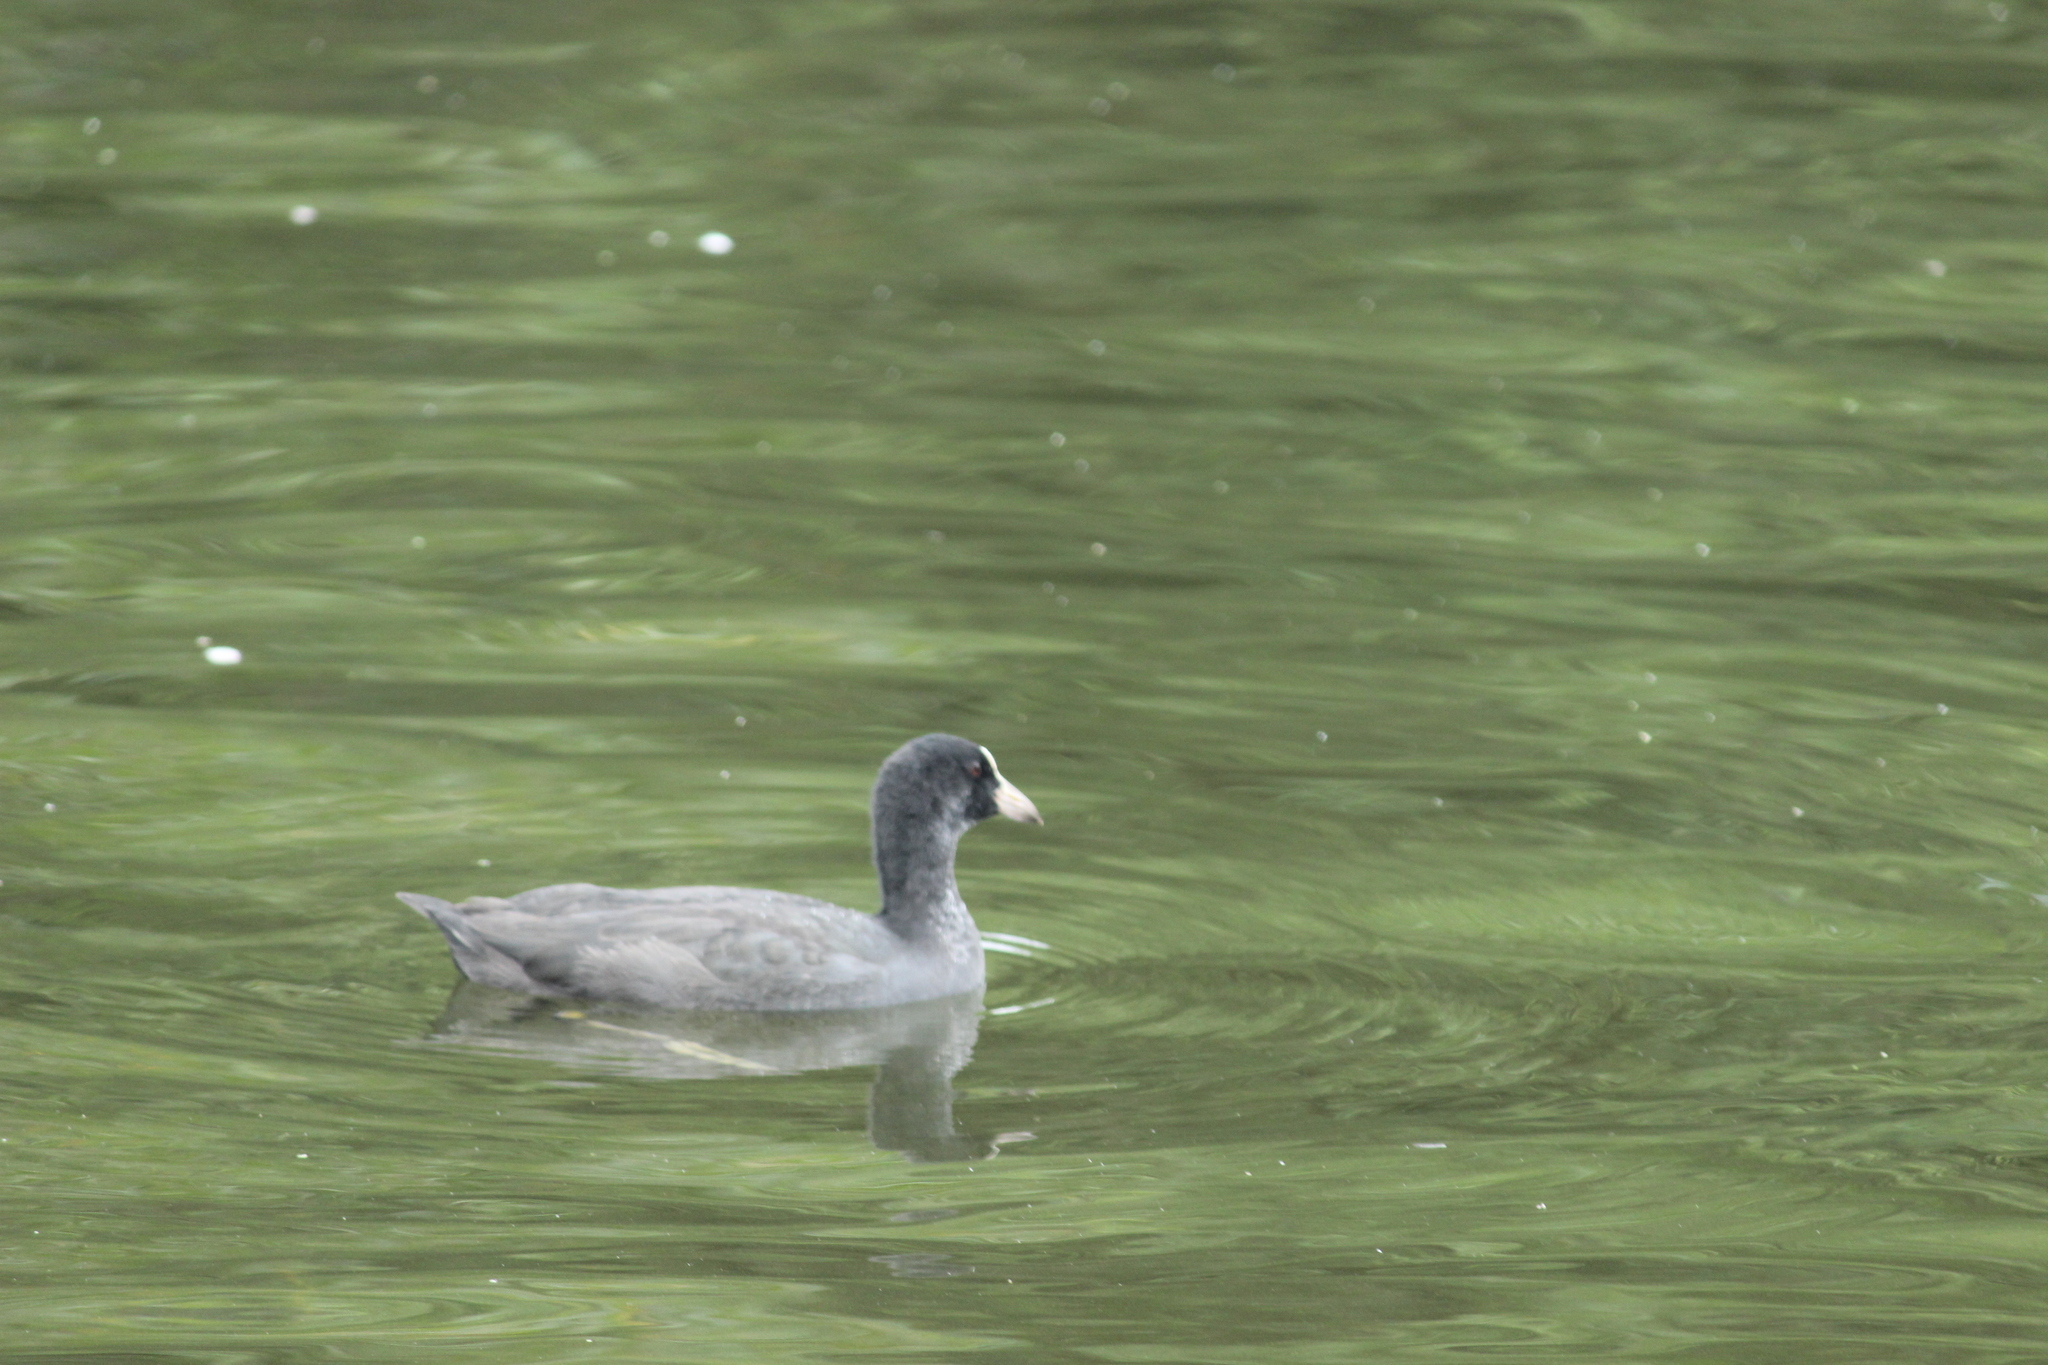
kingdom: Animalia
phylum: Chordata
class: Aves
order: Gruiformes
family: Rallidae
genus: Fulica
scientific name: Fulica atra
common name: Eurasian coot
